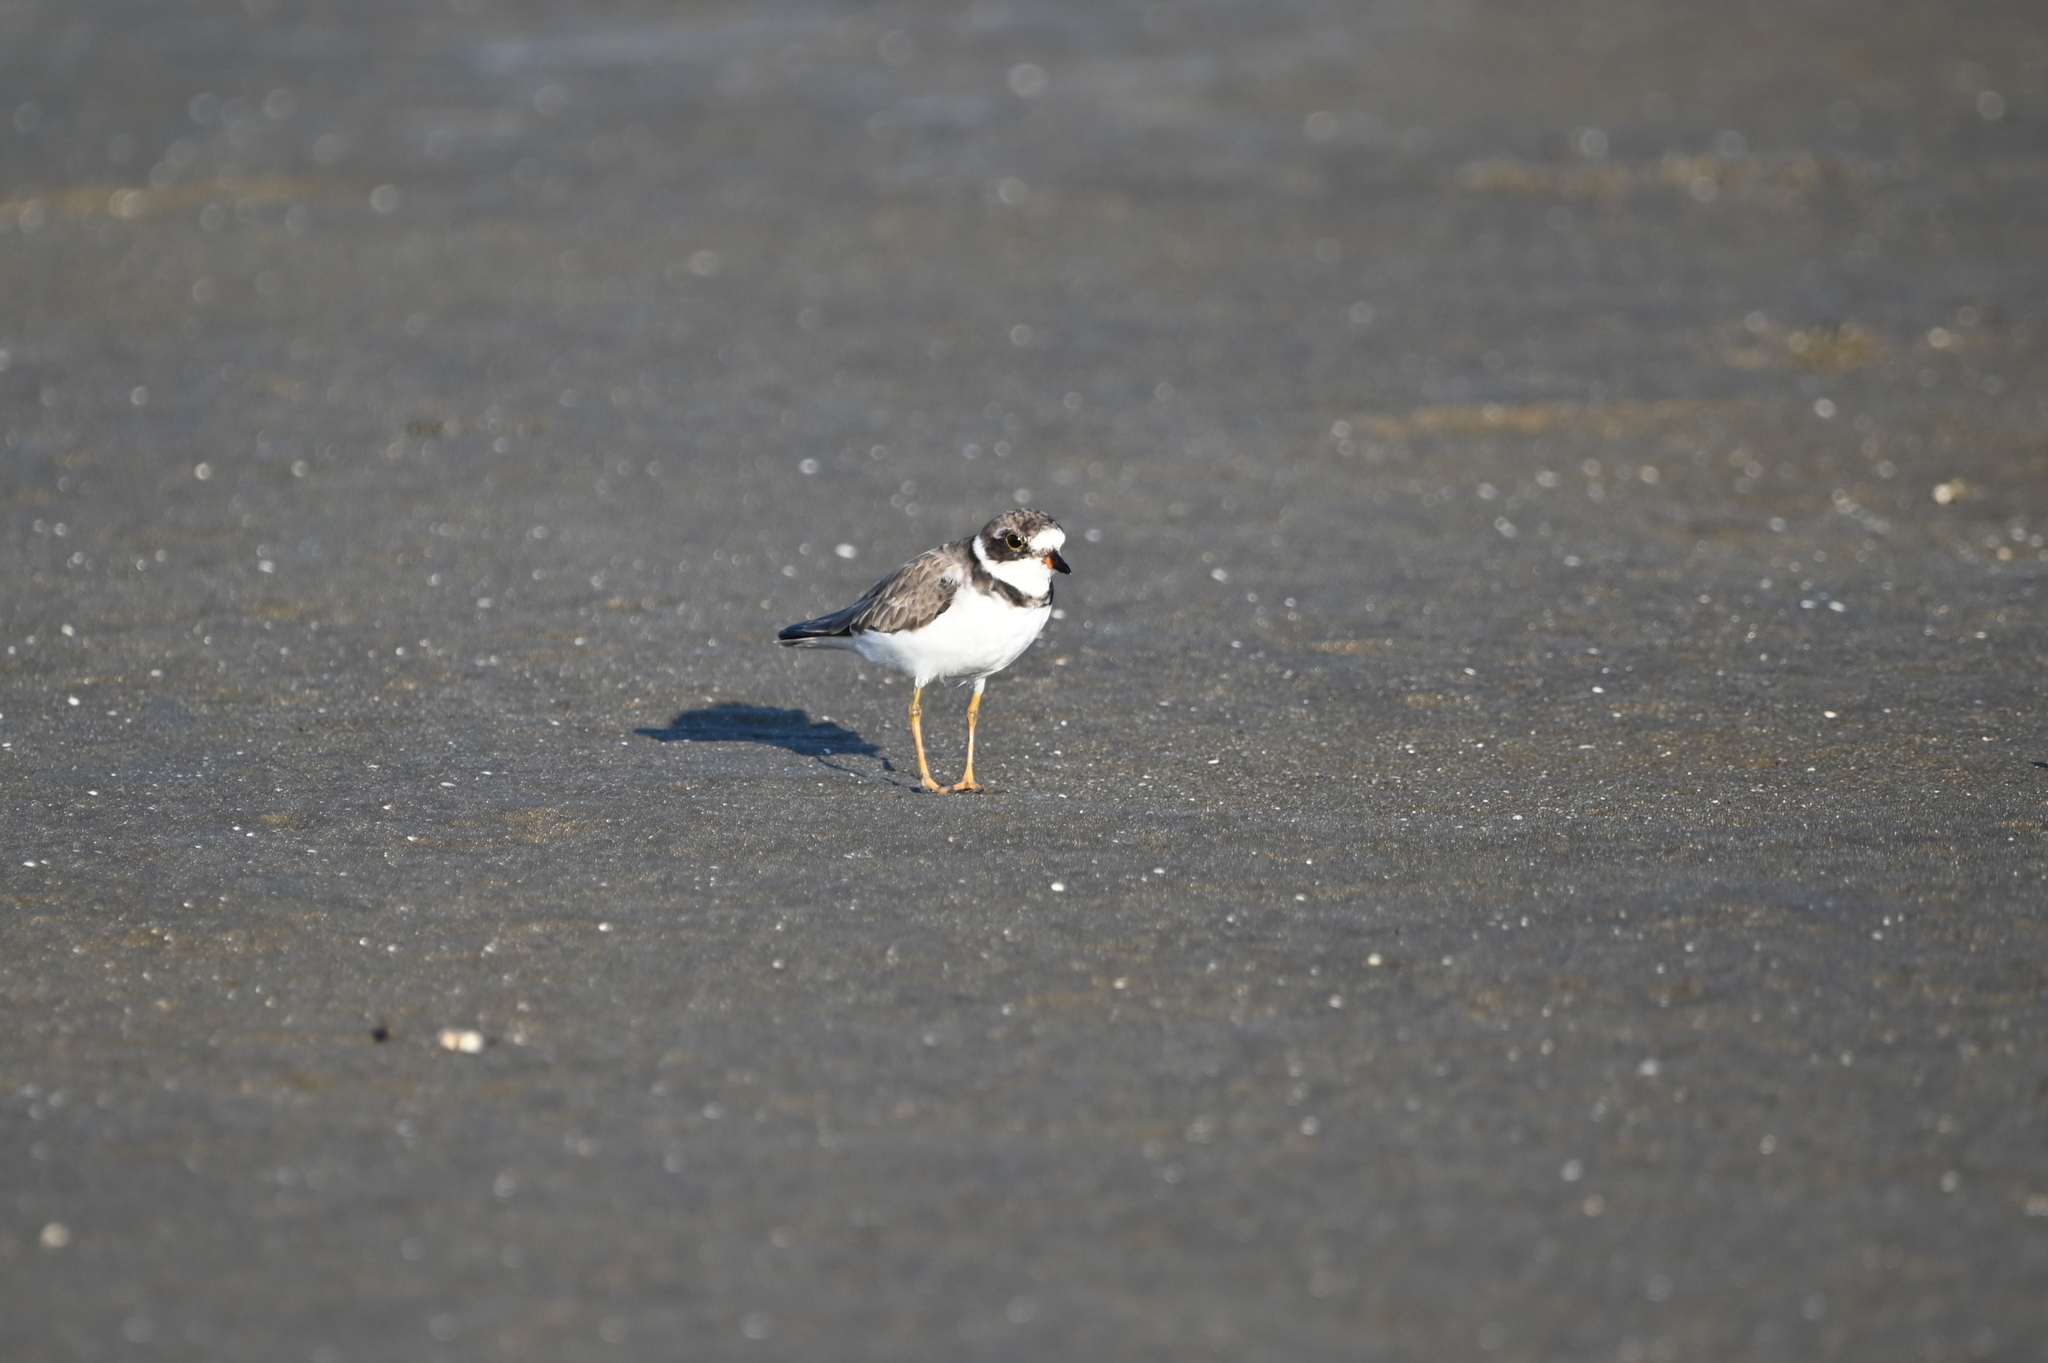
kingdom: Animalia
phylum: Chordata
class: Aves
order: Charadriiformes
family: Charadriidae
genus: Charadrius
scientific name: Charadrius semipalmatus
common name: Semipalmated plover
